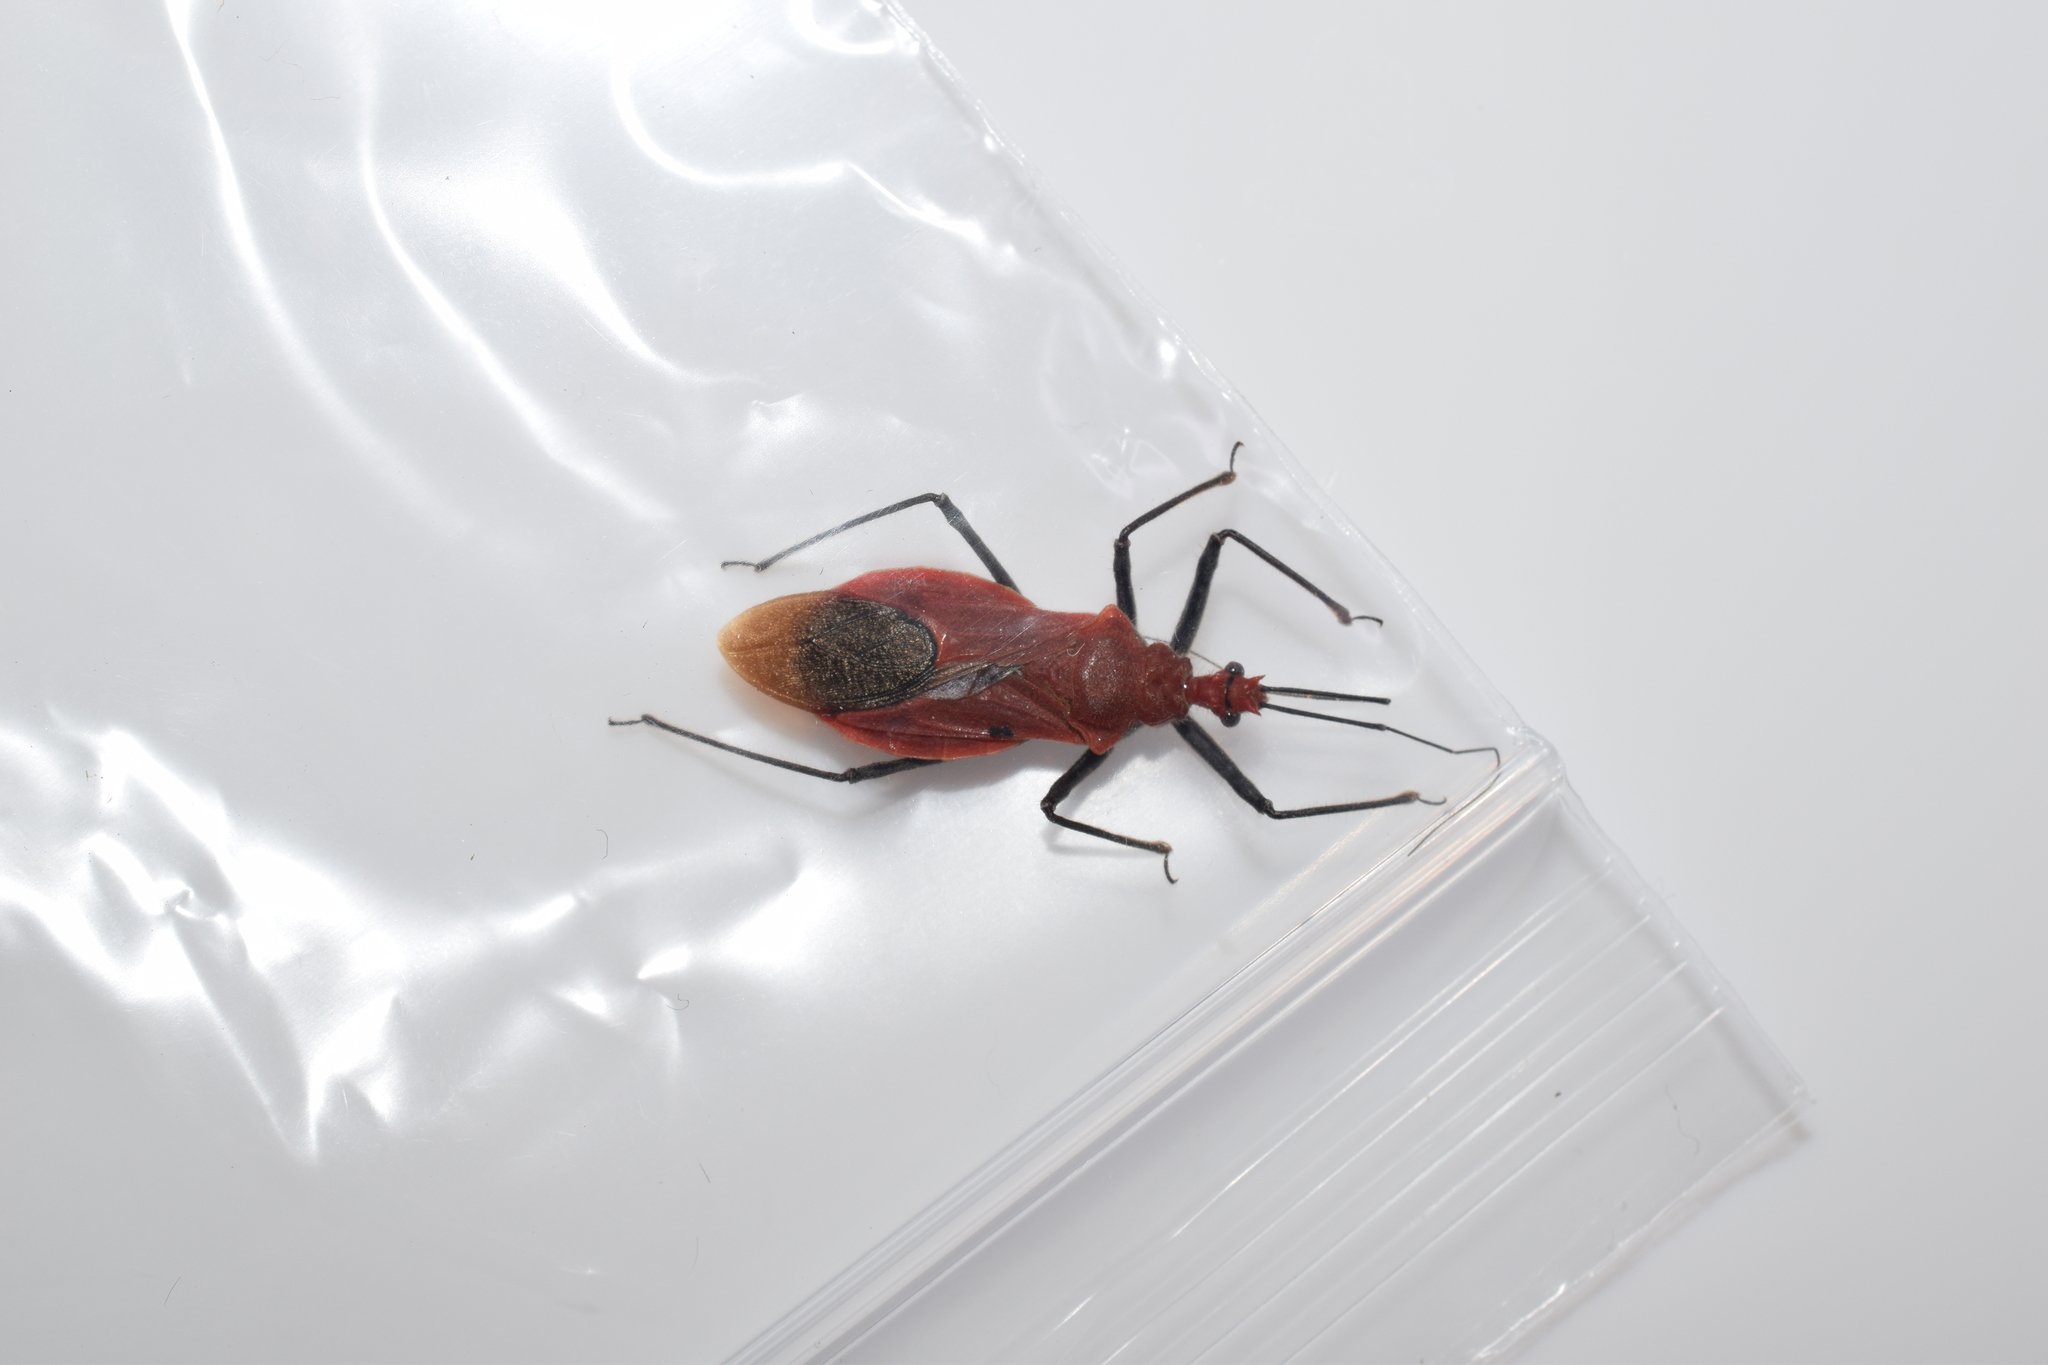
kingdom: Animalia
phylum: Arthropoda
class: Insecta
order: Hemiptera
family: Reduviidae
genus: Cutocoris
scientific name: Cutocoris
